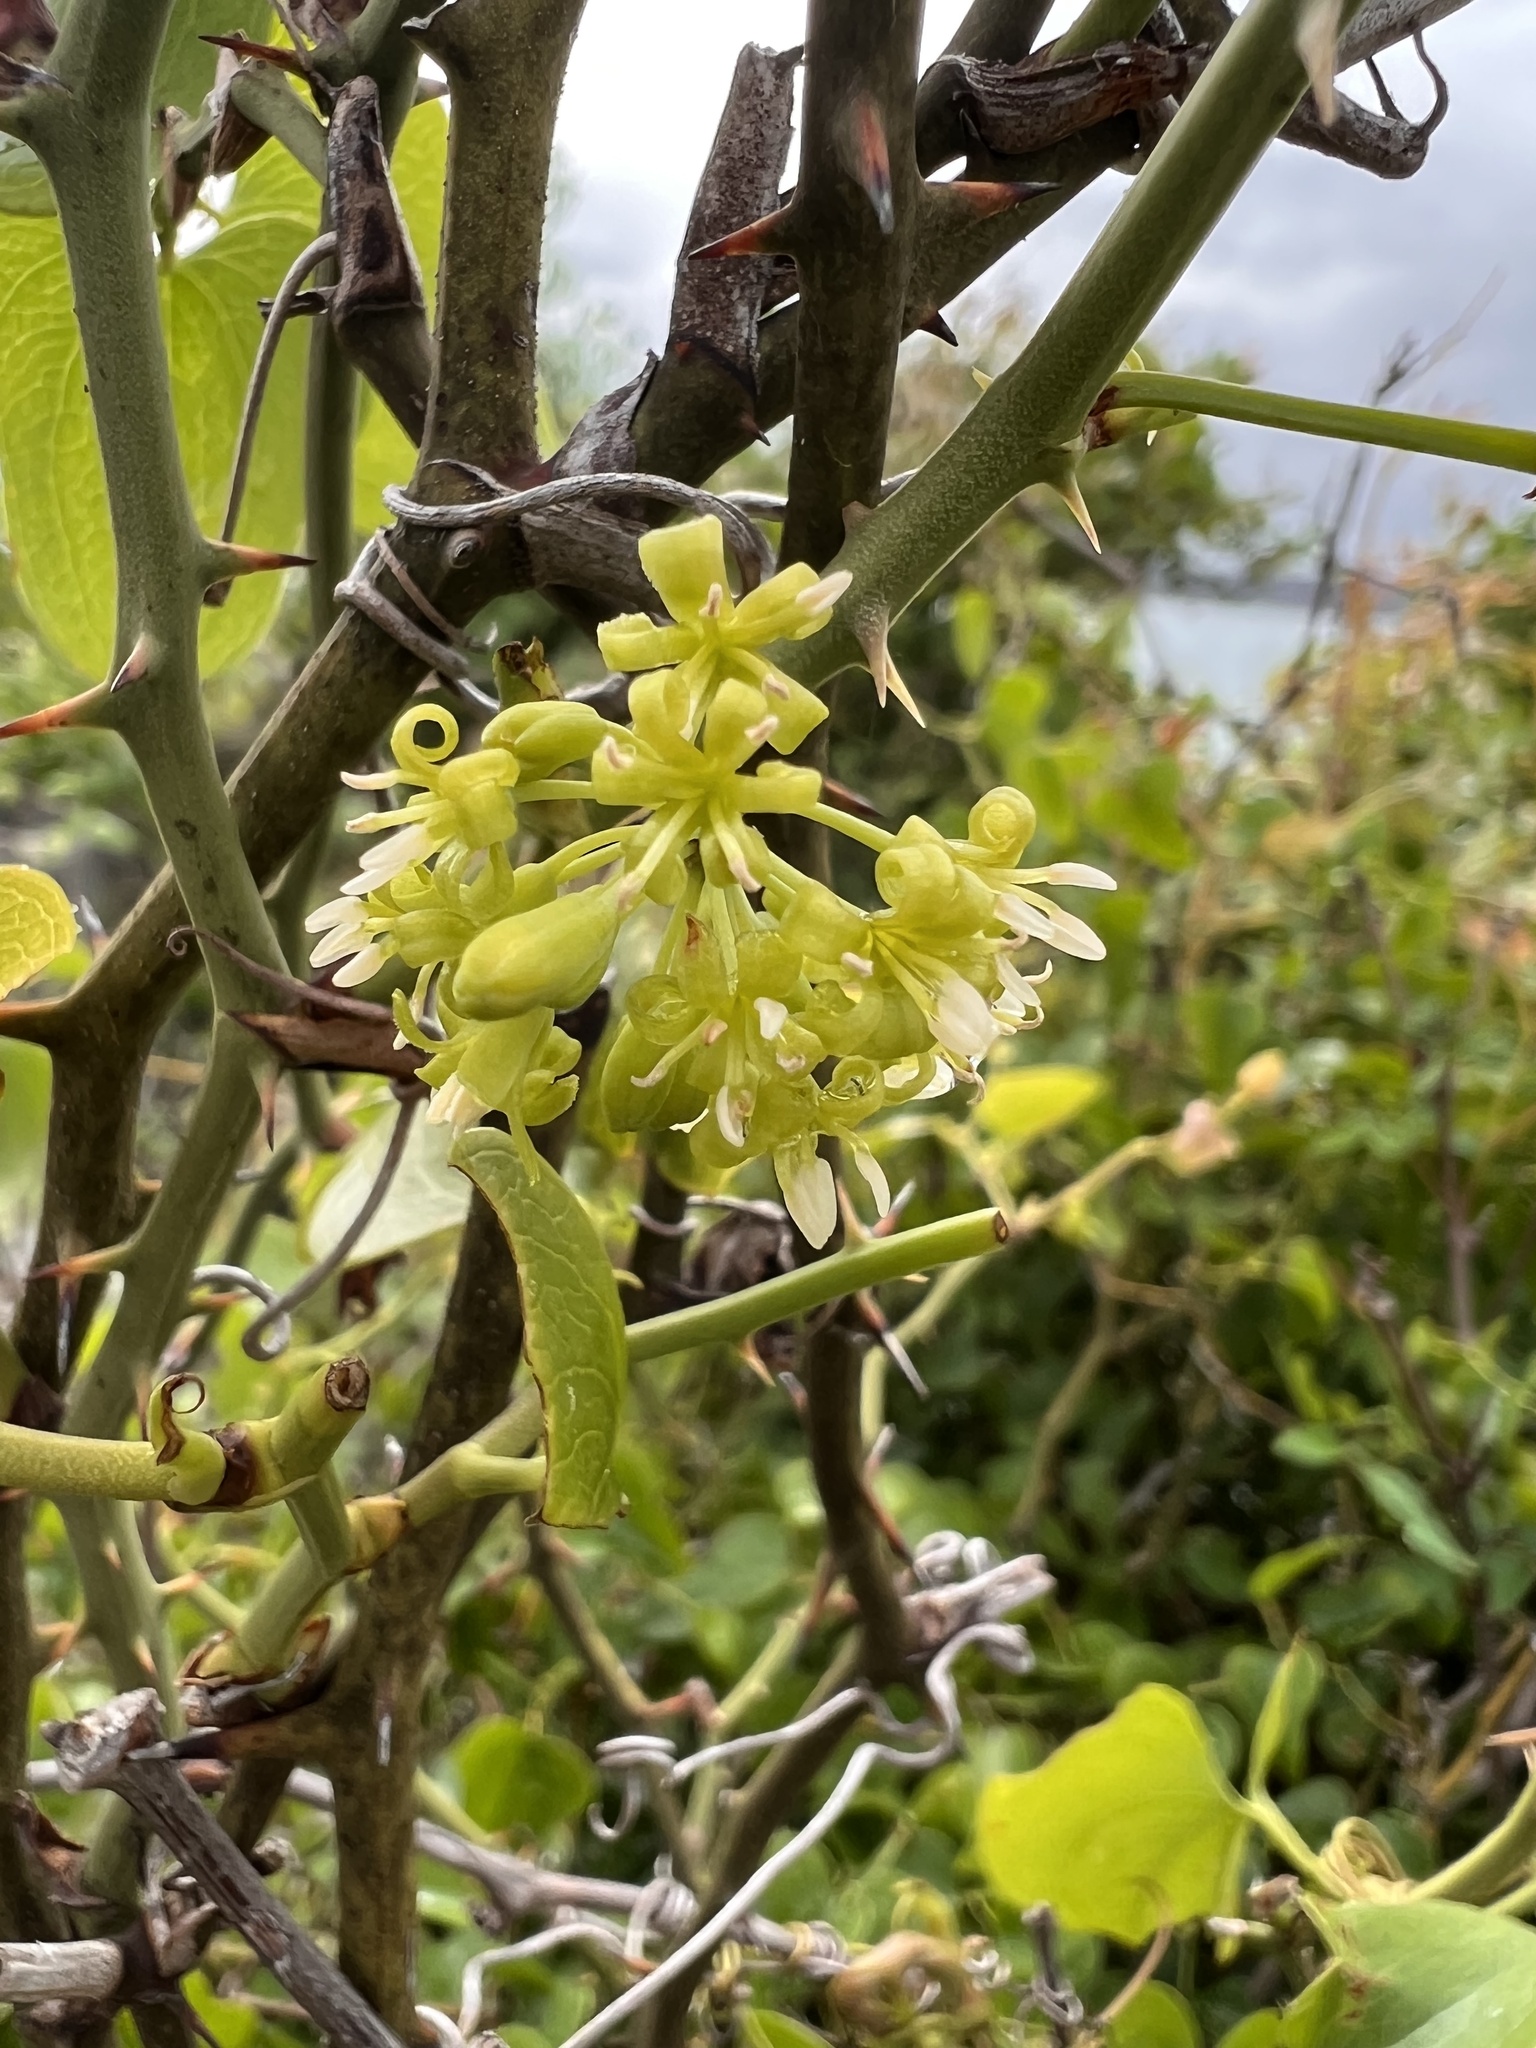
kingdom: Plantae
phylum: Tracheophyta
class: Liliopsida
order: Liliales
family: Smilacaceae
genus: Smilax
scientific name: Smilax bona-nox
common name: Catbrier
